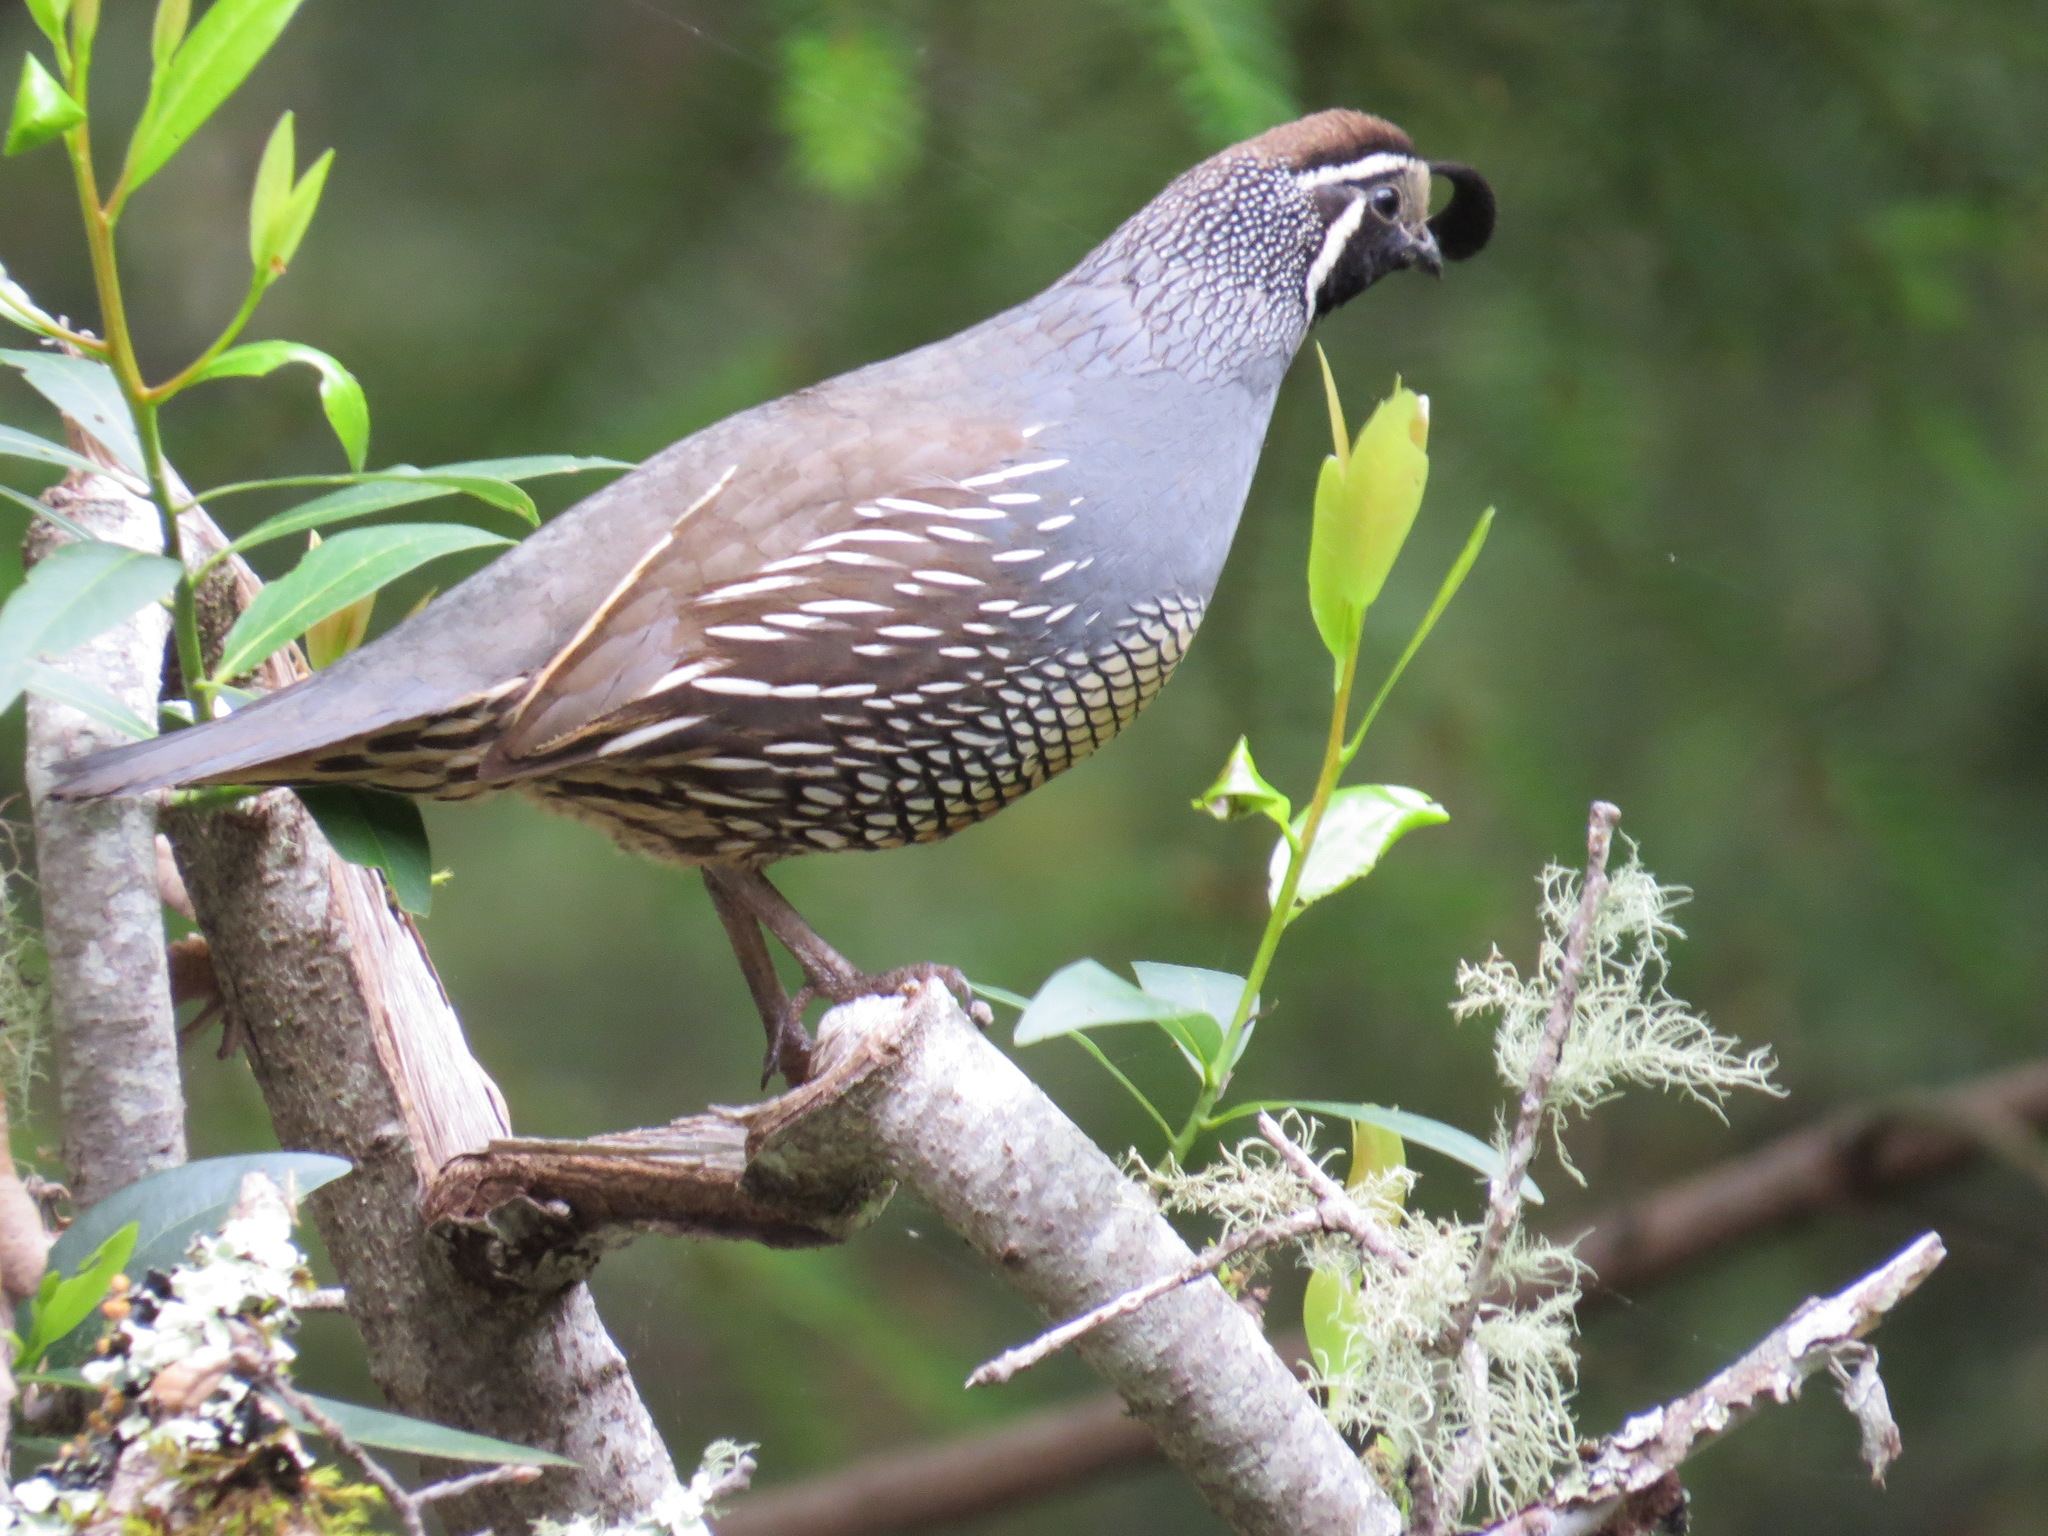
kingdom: Animalia
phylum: Chordata
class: Aves
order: Galliformes
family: Odontophoridae
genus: Callipepla
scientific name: Callipepla californica
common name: California quail
